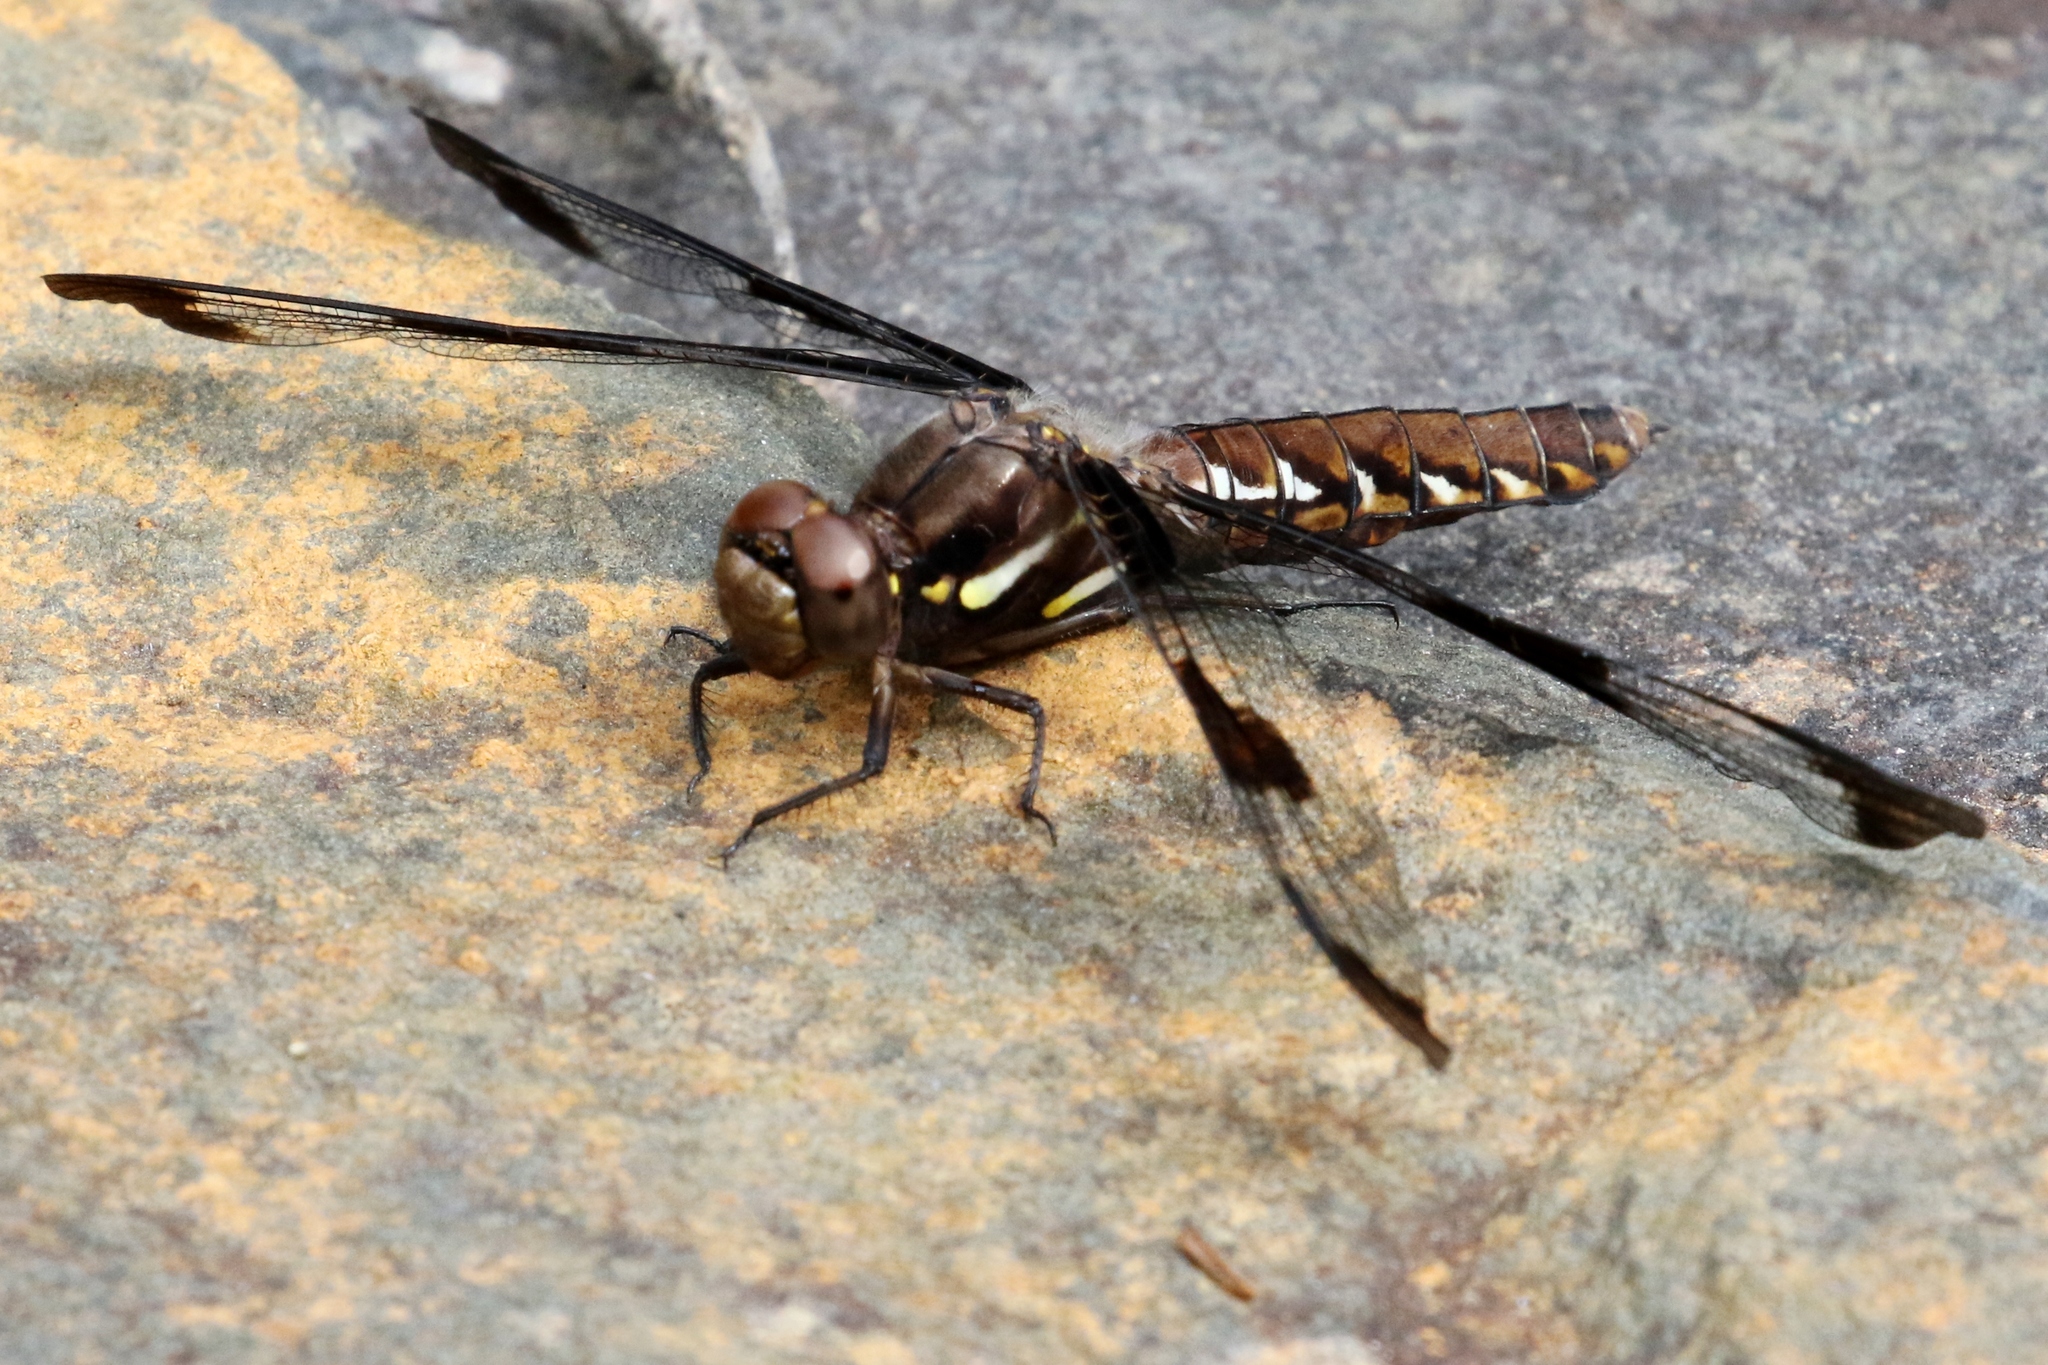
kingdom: Animalia
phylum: Arthropoda
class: Insecta
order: Odonata
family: Libellulidae
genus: Plathemis
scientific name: Plathemis lydia
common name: Common whitetail
